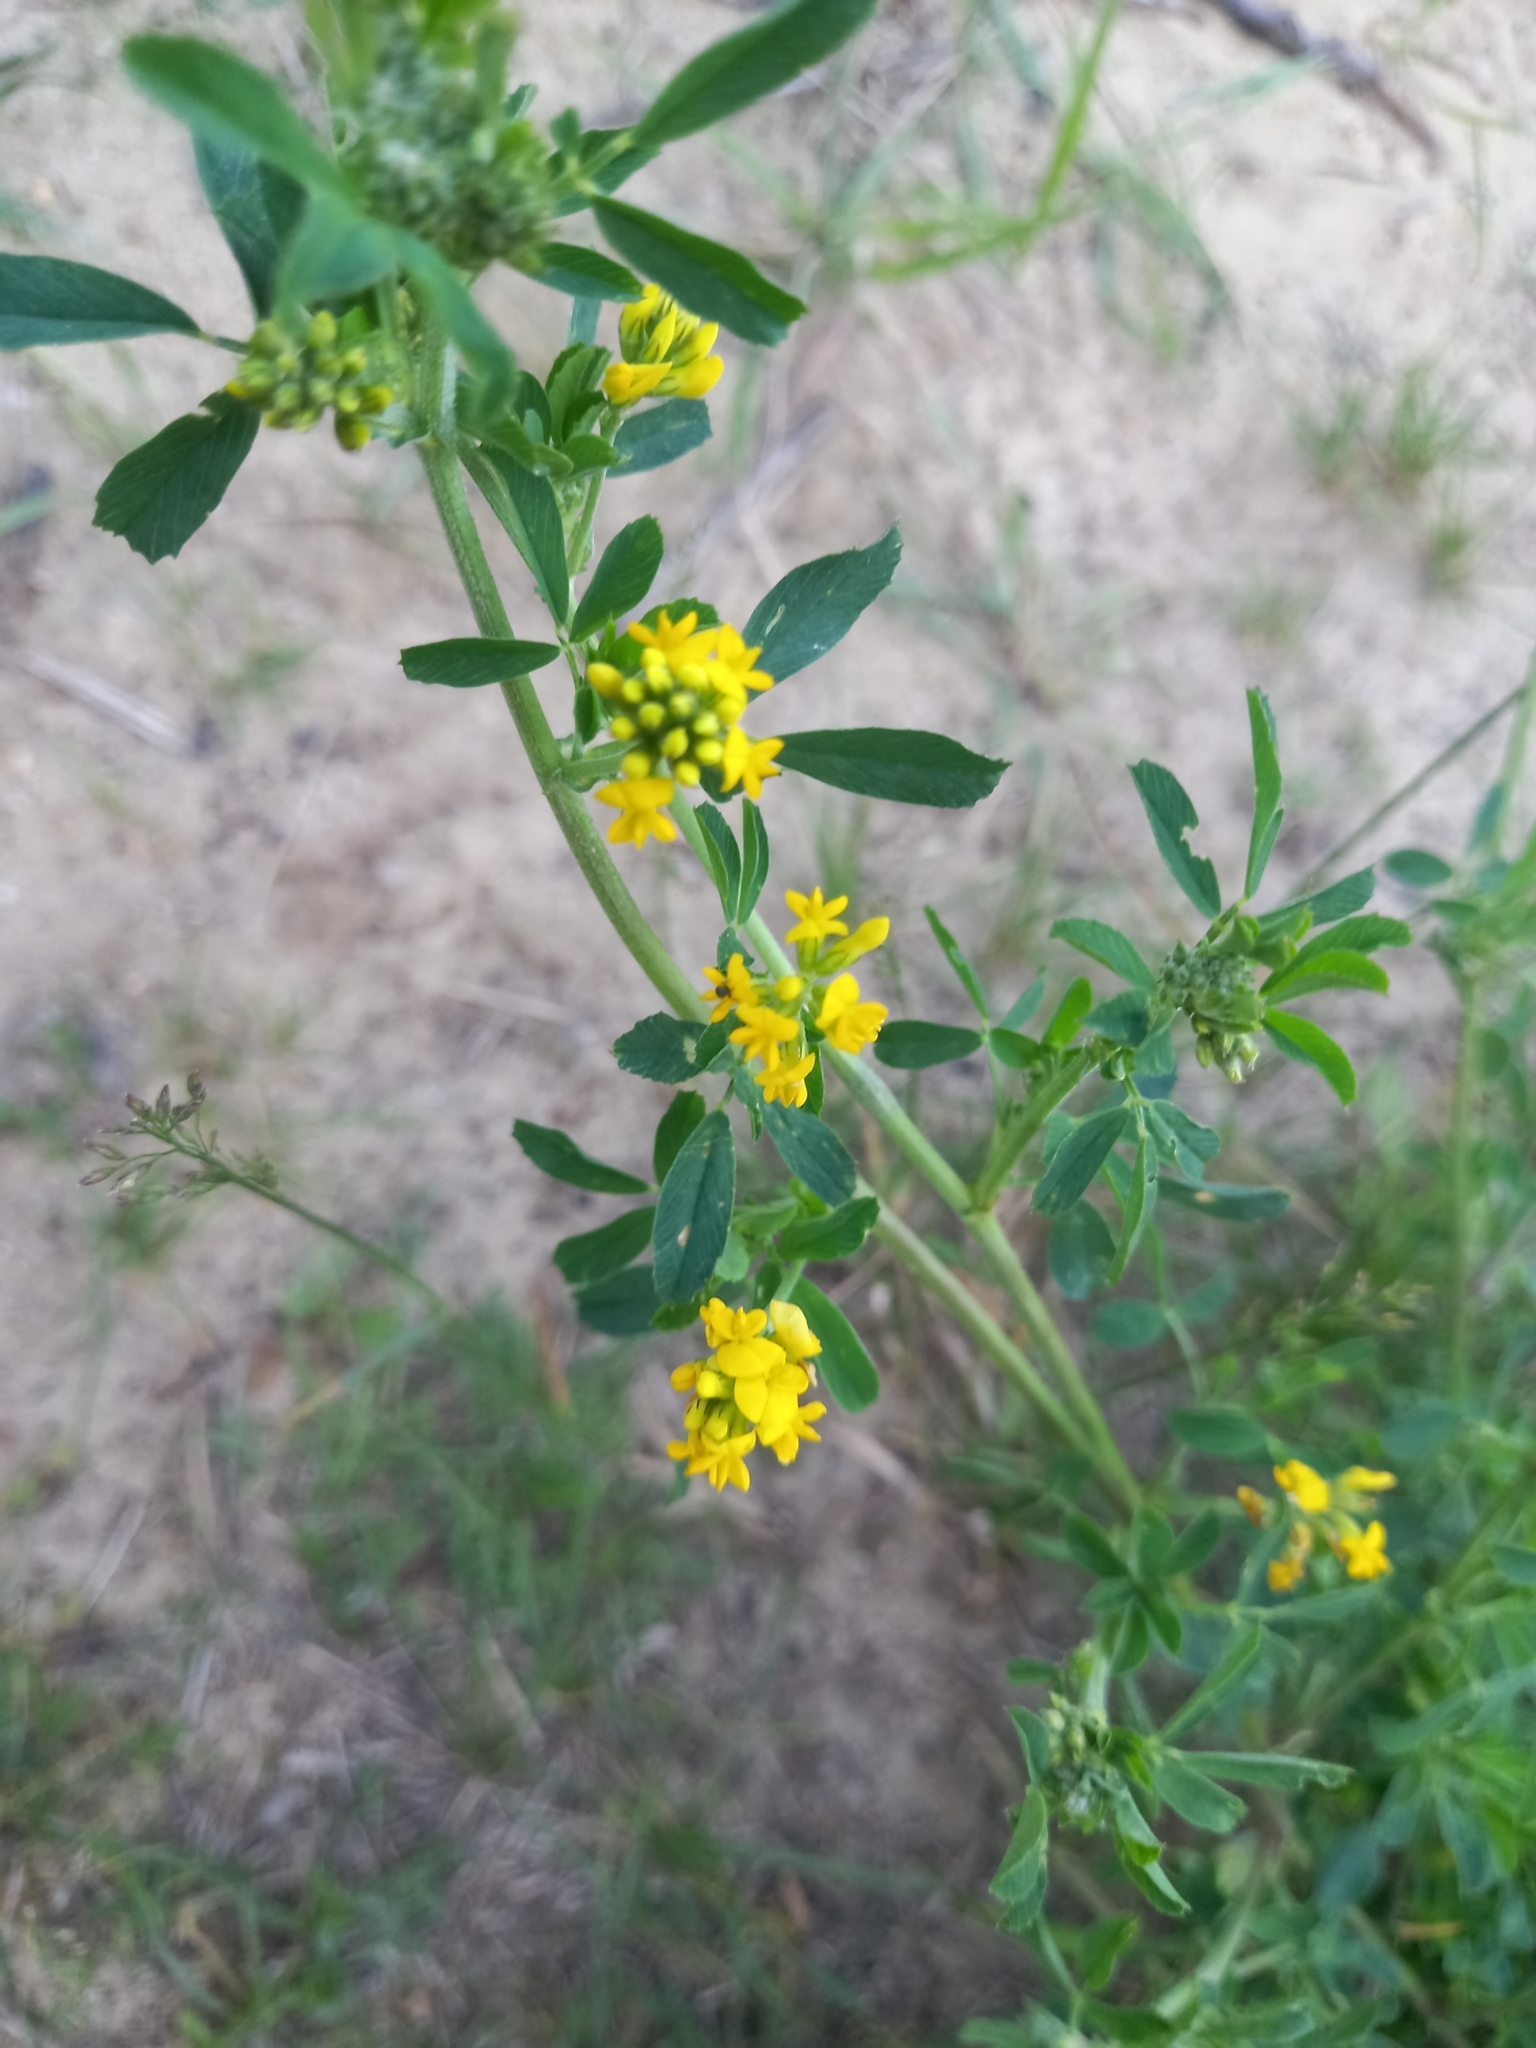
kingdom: Plantae
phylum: Tracheophyta
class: Magnoliopsida
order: Fabales
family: Fabaceae
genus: Medicago
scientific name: Medicago falcata
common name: Sickle medick
